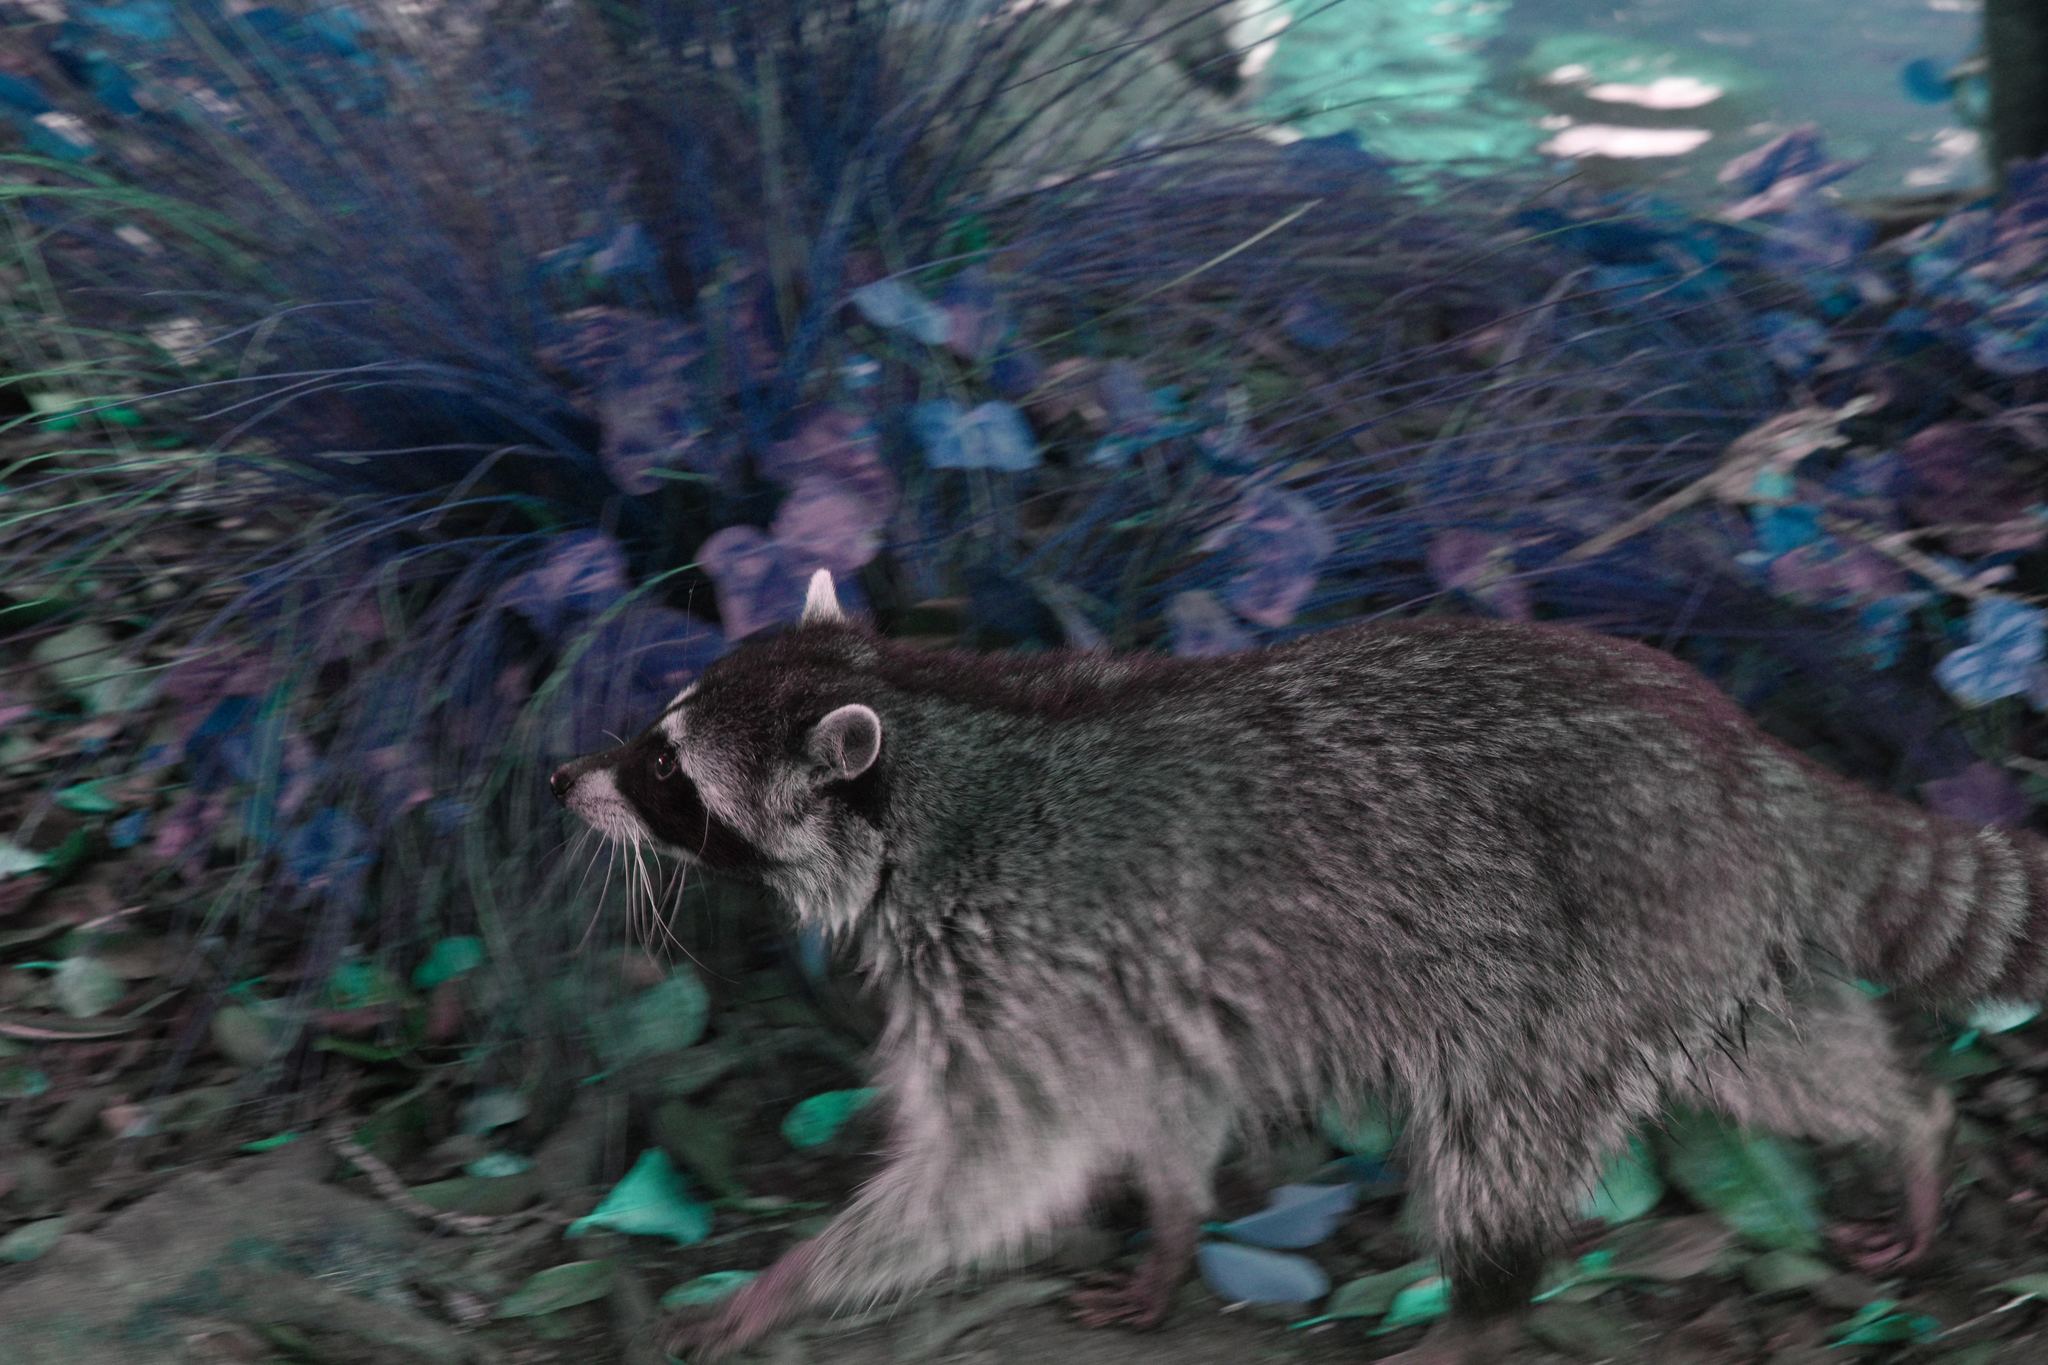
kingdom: Animalia
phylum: Chordata
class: Mammalia
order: Carnivora
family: Procyonidae
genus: Procyon
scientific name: Procyon lotor
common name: Raccoon
